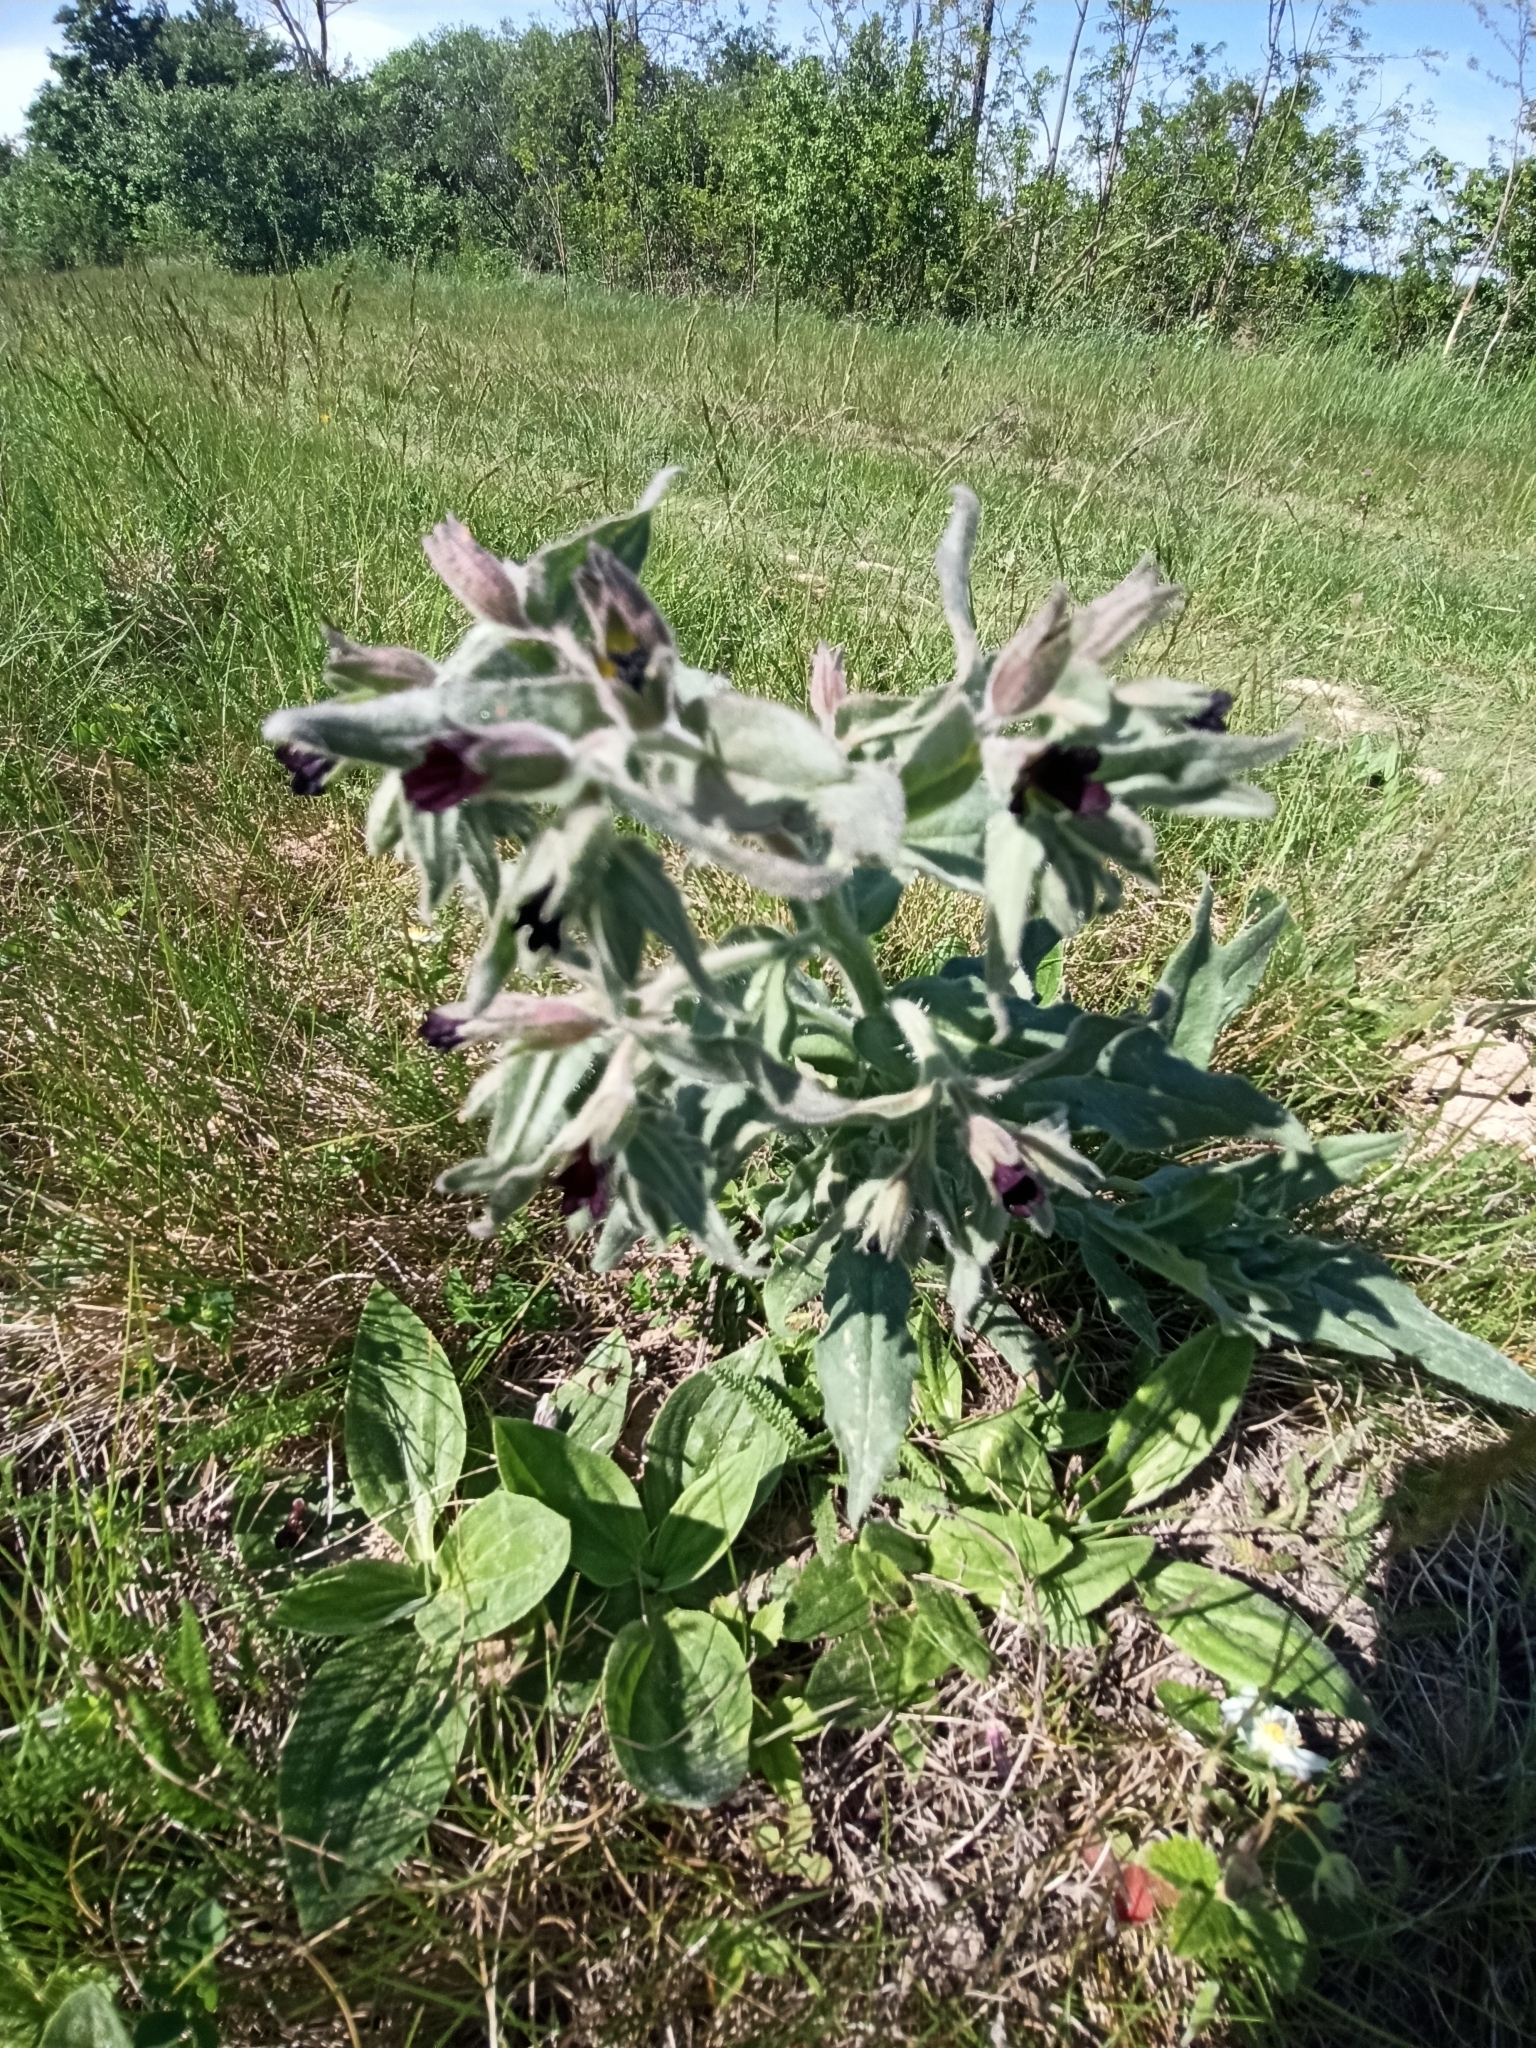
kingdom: Plantae
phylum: Tracheophyta
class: Magnoliopsida
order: Boraginales
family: Boraginaceae
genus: Nonea
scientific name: Nonea pulla
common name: Brown nonea
